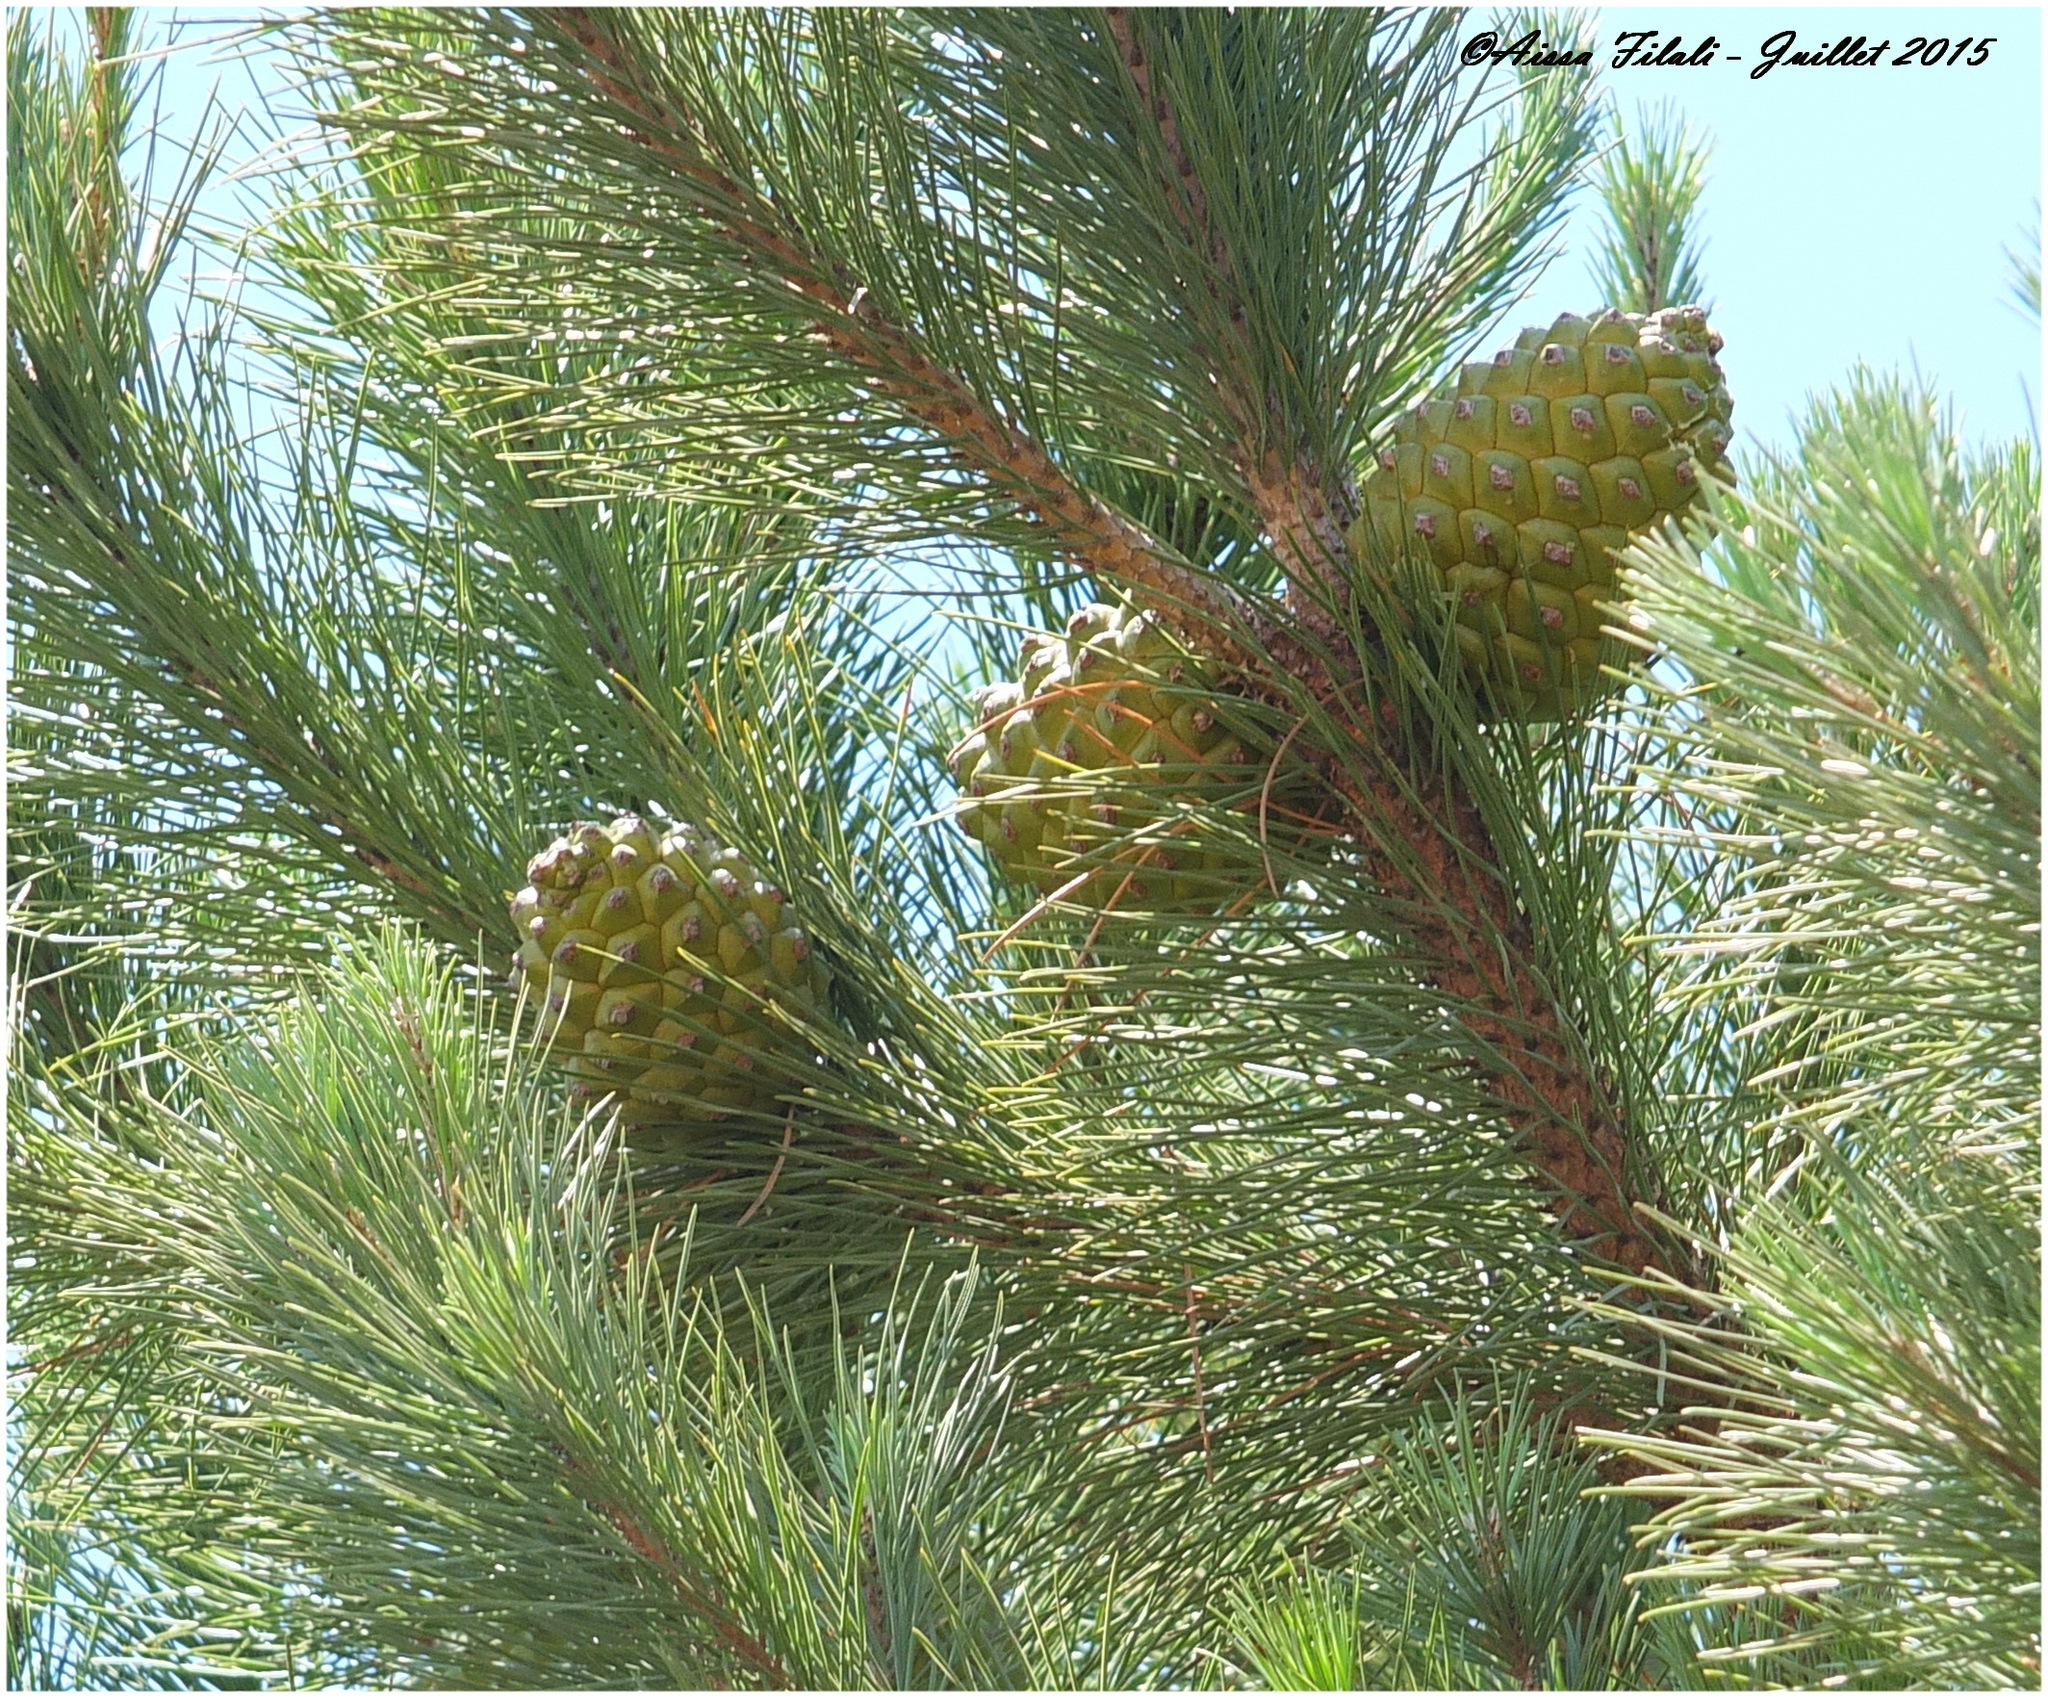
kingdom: Plantae
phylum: Tracheophyta
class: Pinopsida
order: Pinales
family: Pinaceae
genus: Pinus
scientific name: Pinus pinea
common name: Italian stone pine
